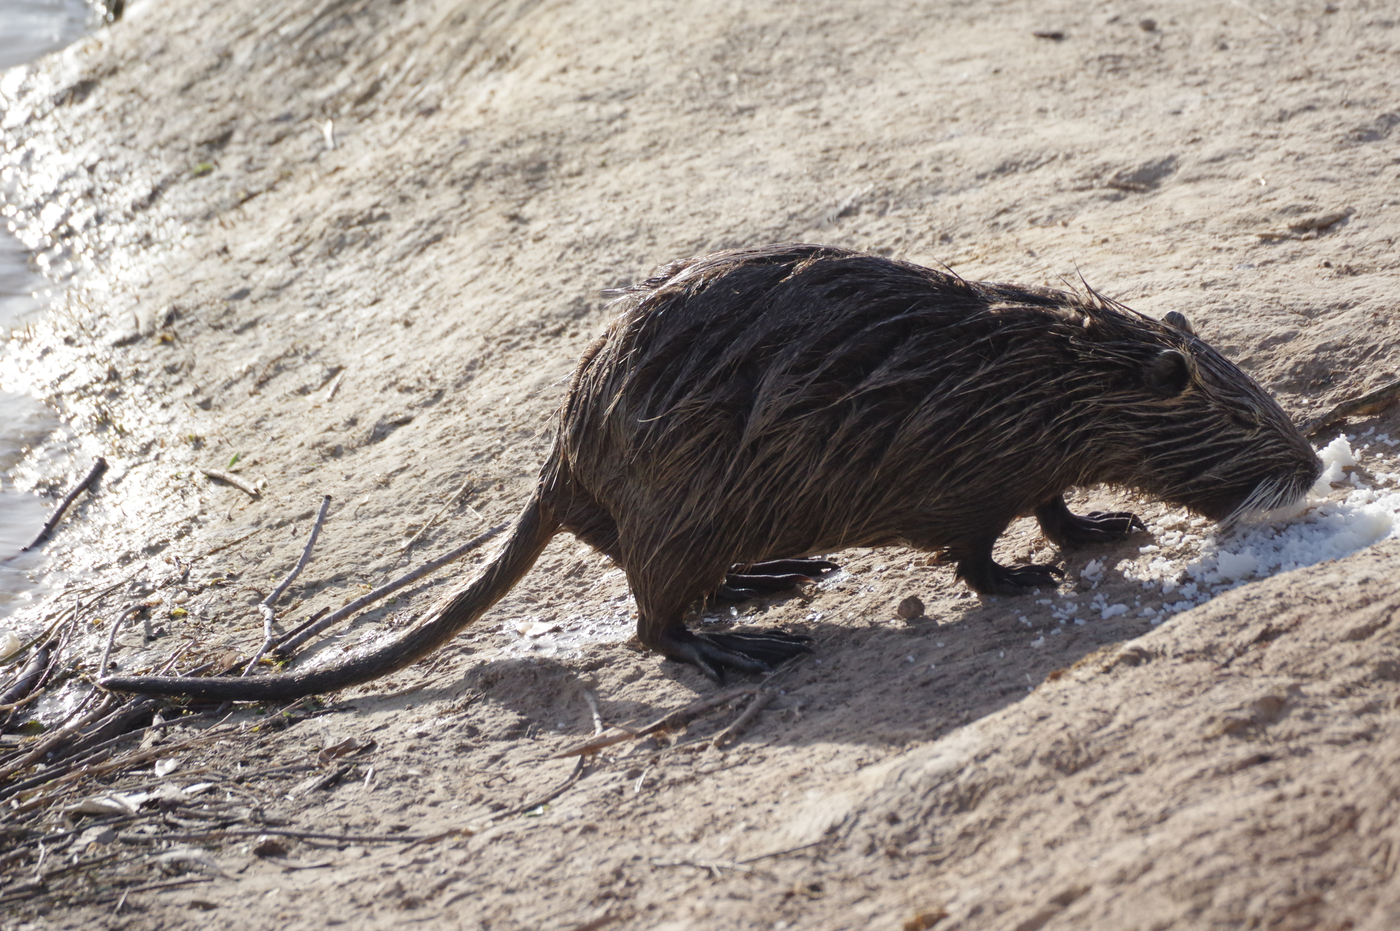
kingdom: Animalia
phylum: Chordata
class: Mammalia
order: Rodentia
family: Myocastoridae
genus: Myocastor
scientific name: Myocastor coypus
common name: Coypu
